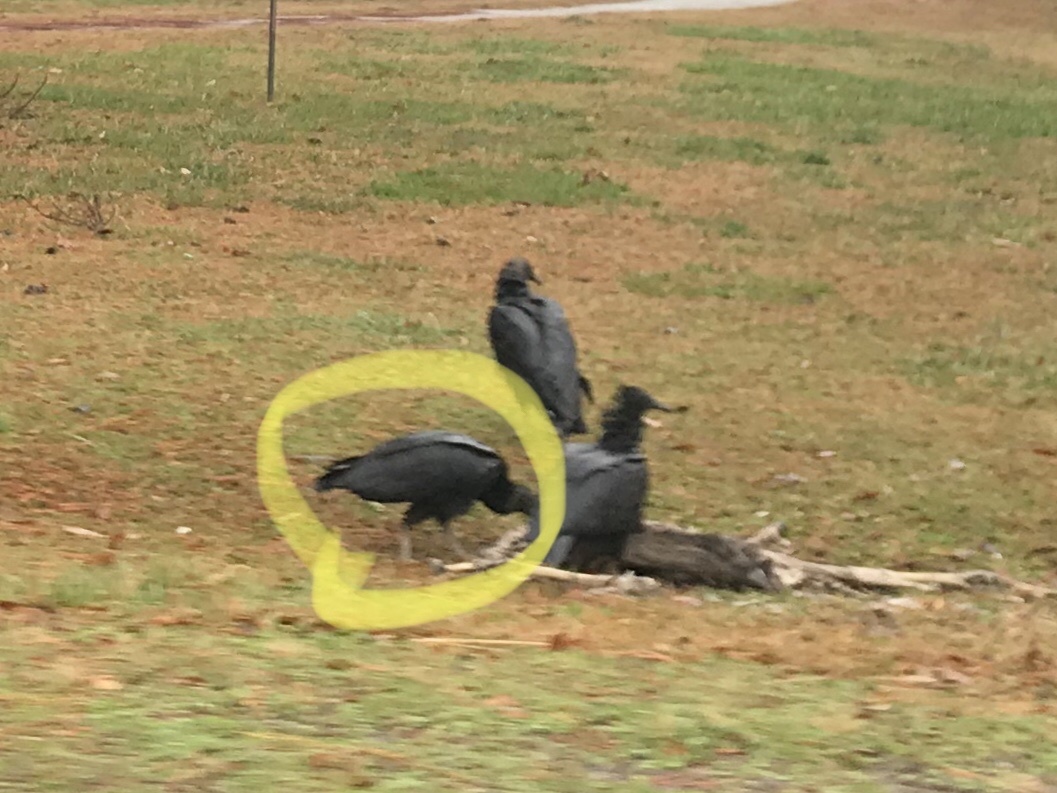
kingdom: Animalia
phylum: Chordata
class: Aves
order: Accipitriformes
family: Cathartidae
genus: Coragyps
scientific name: Coragyps atratus
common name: Black vulture
